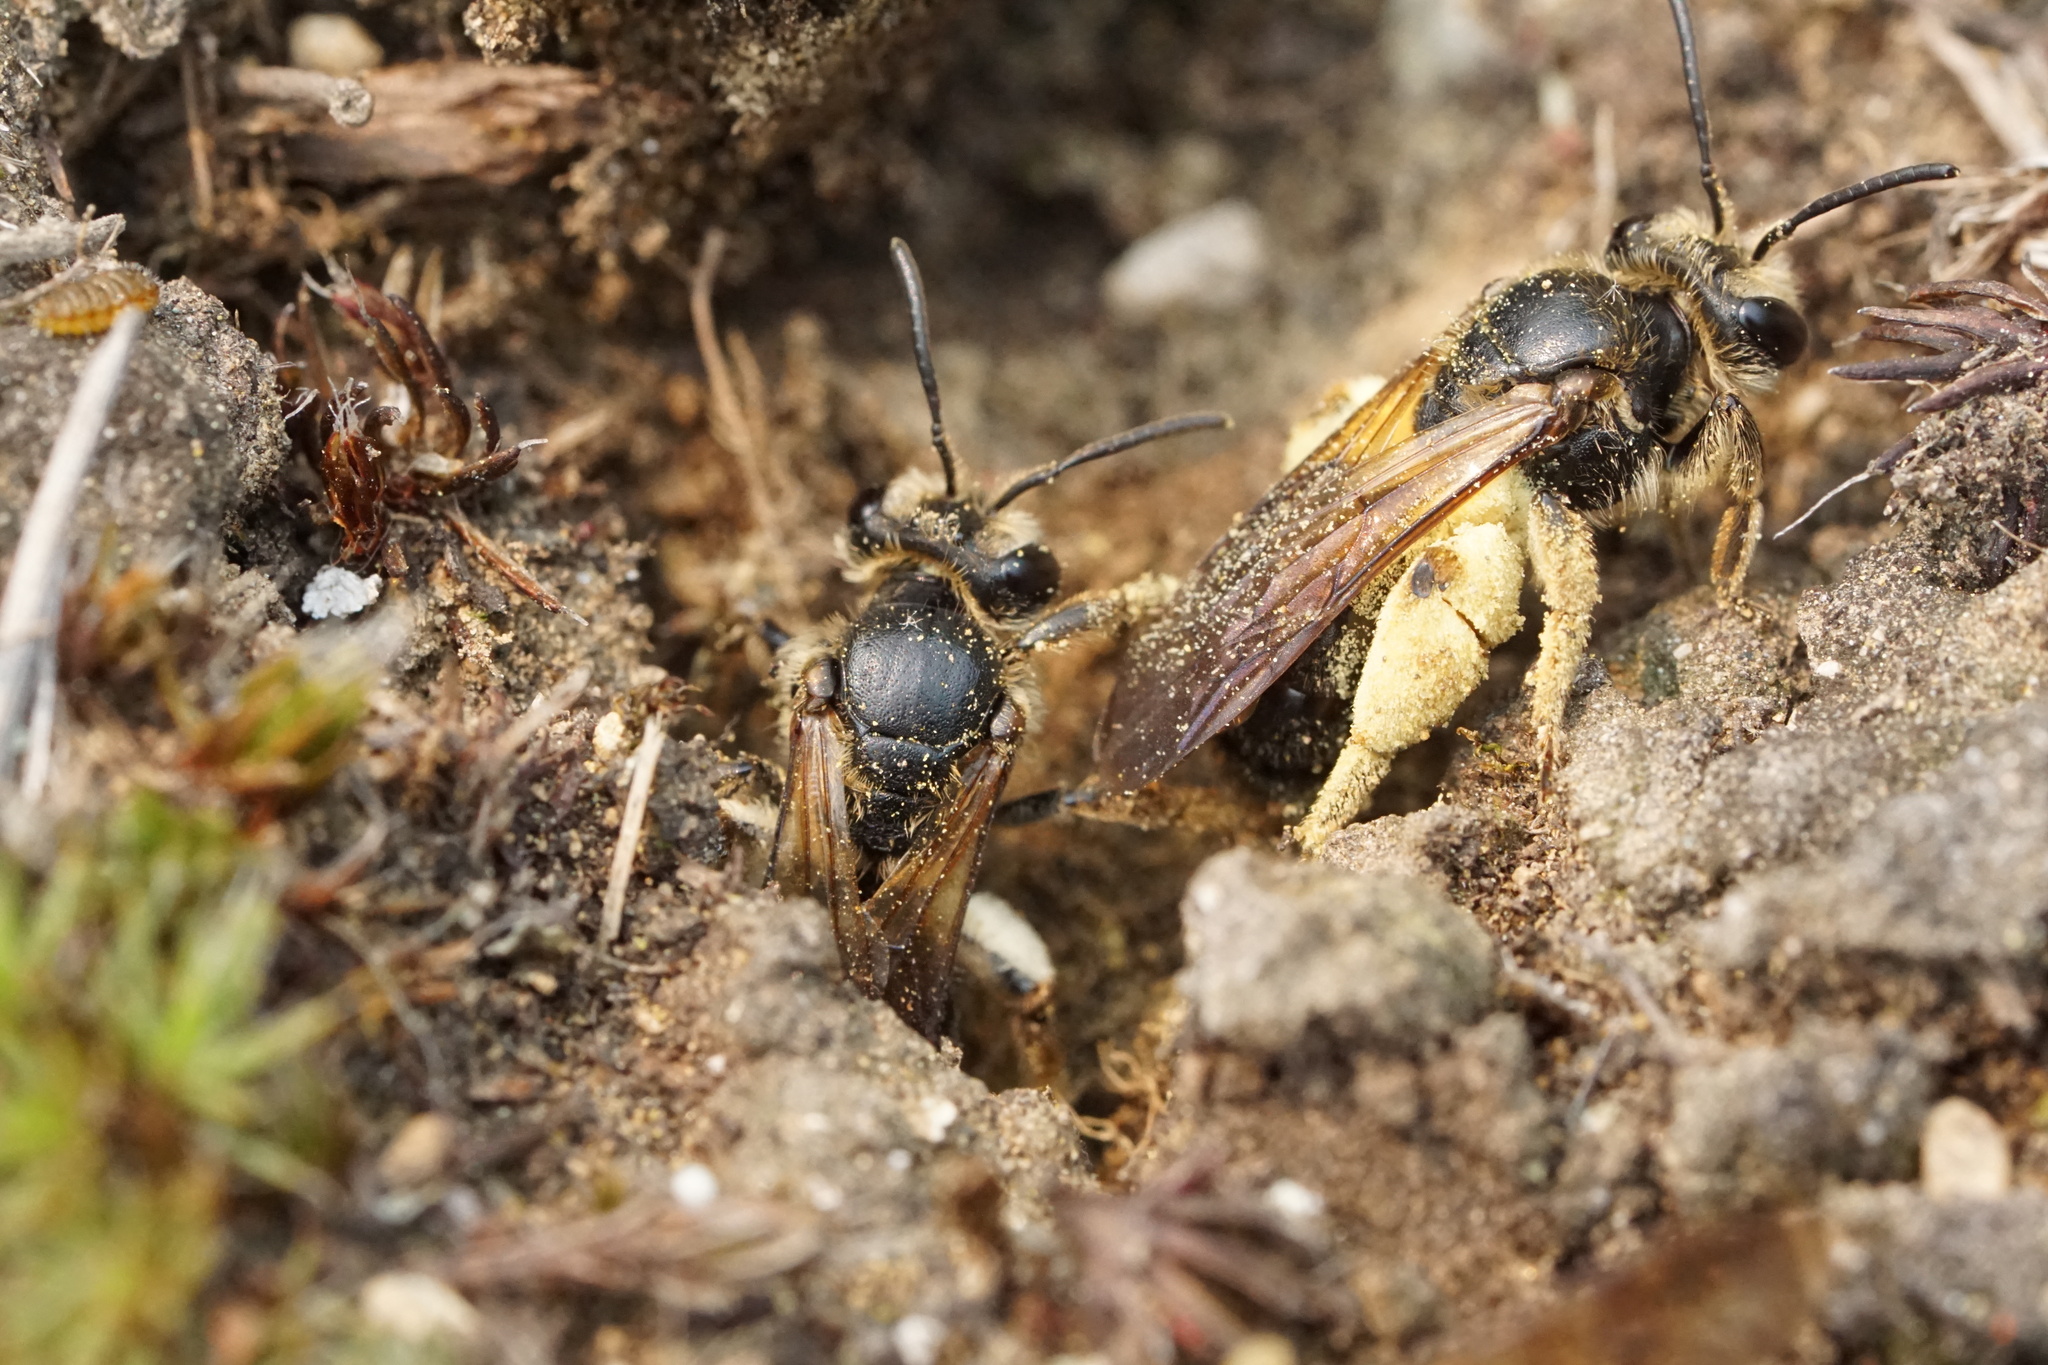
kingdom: Animalia
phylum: Arthropoda
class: Insecta
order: Hymenoptera
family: Andrenidae
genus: Andrena
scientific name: Andrena crataegi
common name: Hawthorn mining bee
